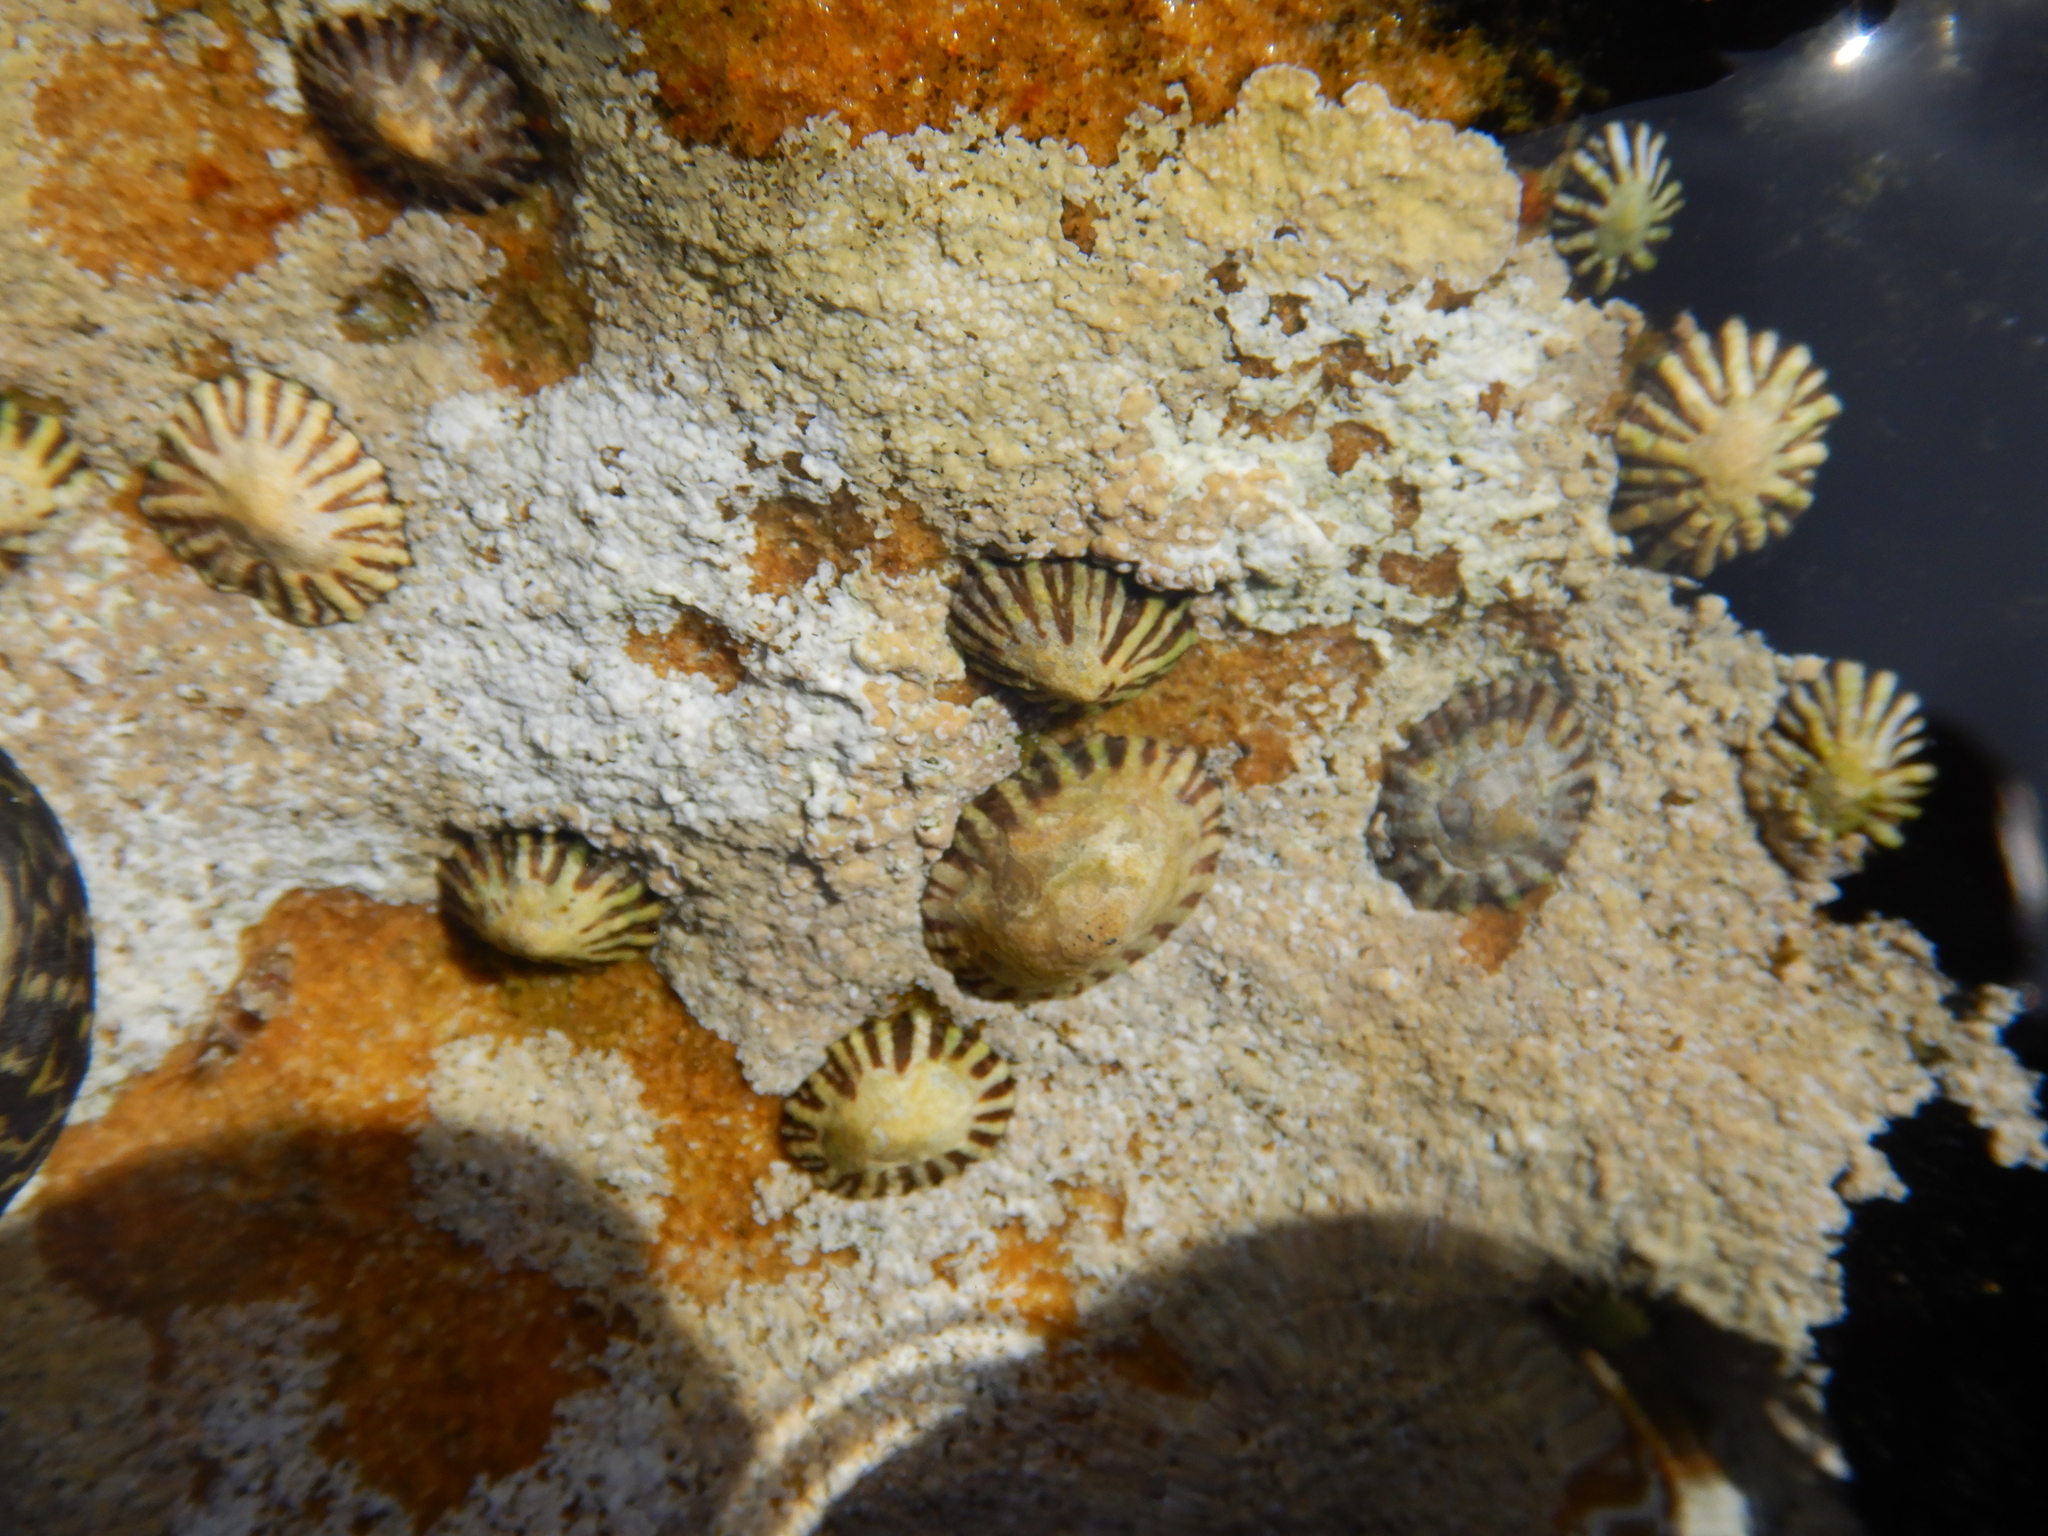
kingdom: Animalia
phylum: Mollusca
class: Gastropoda
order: Siphonariida
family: Siphonariidae
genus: Siphonaria
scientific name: Siphonaria diemenensis
